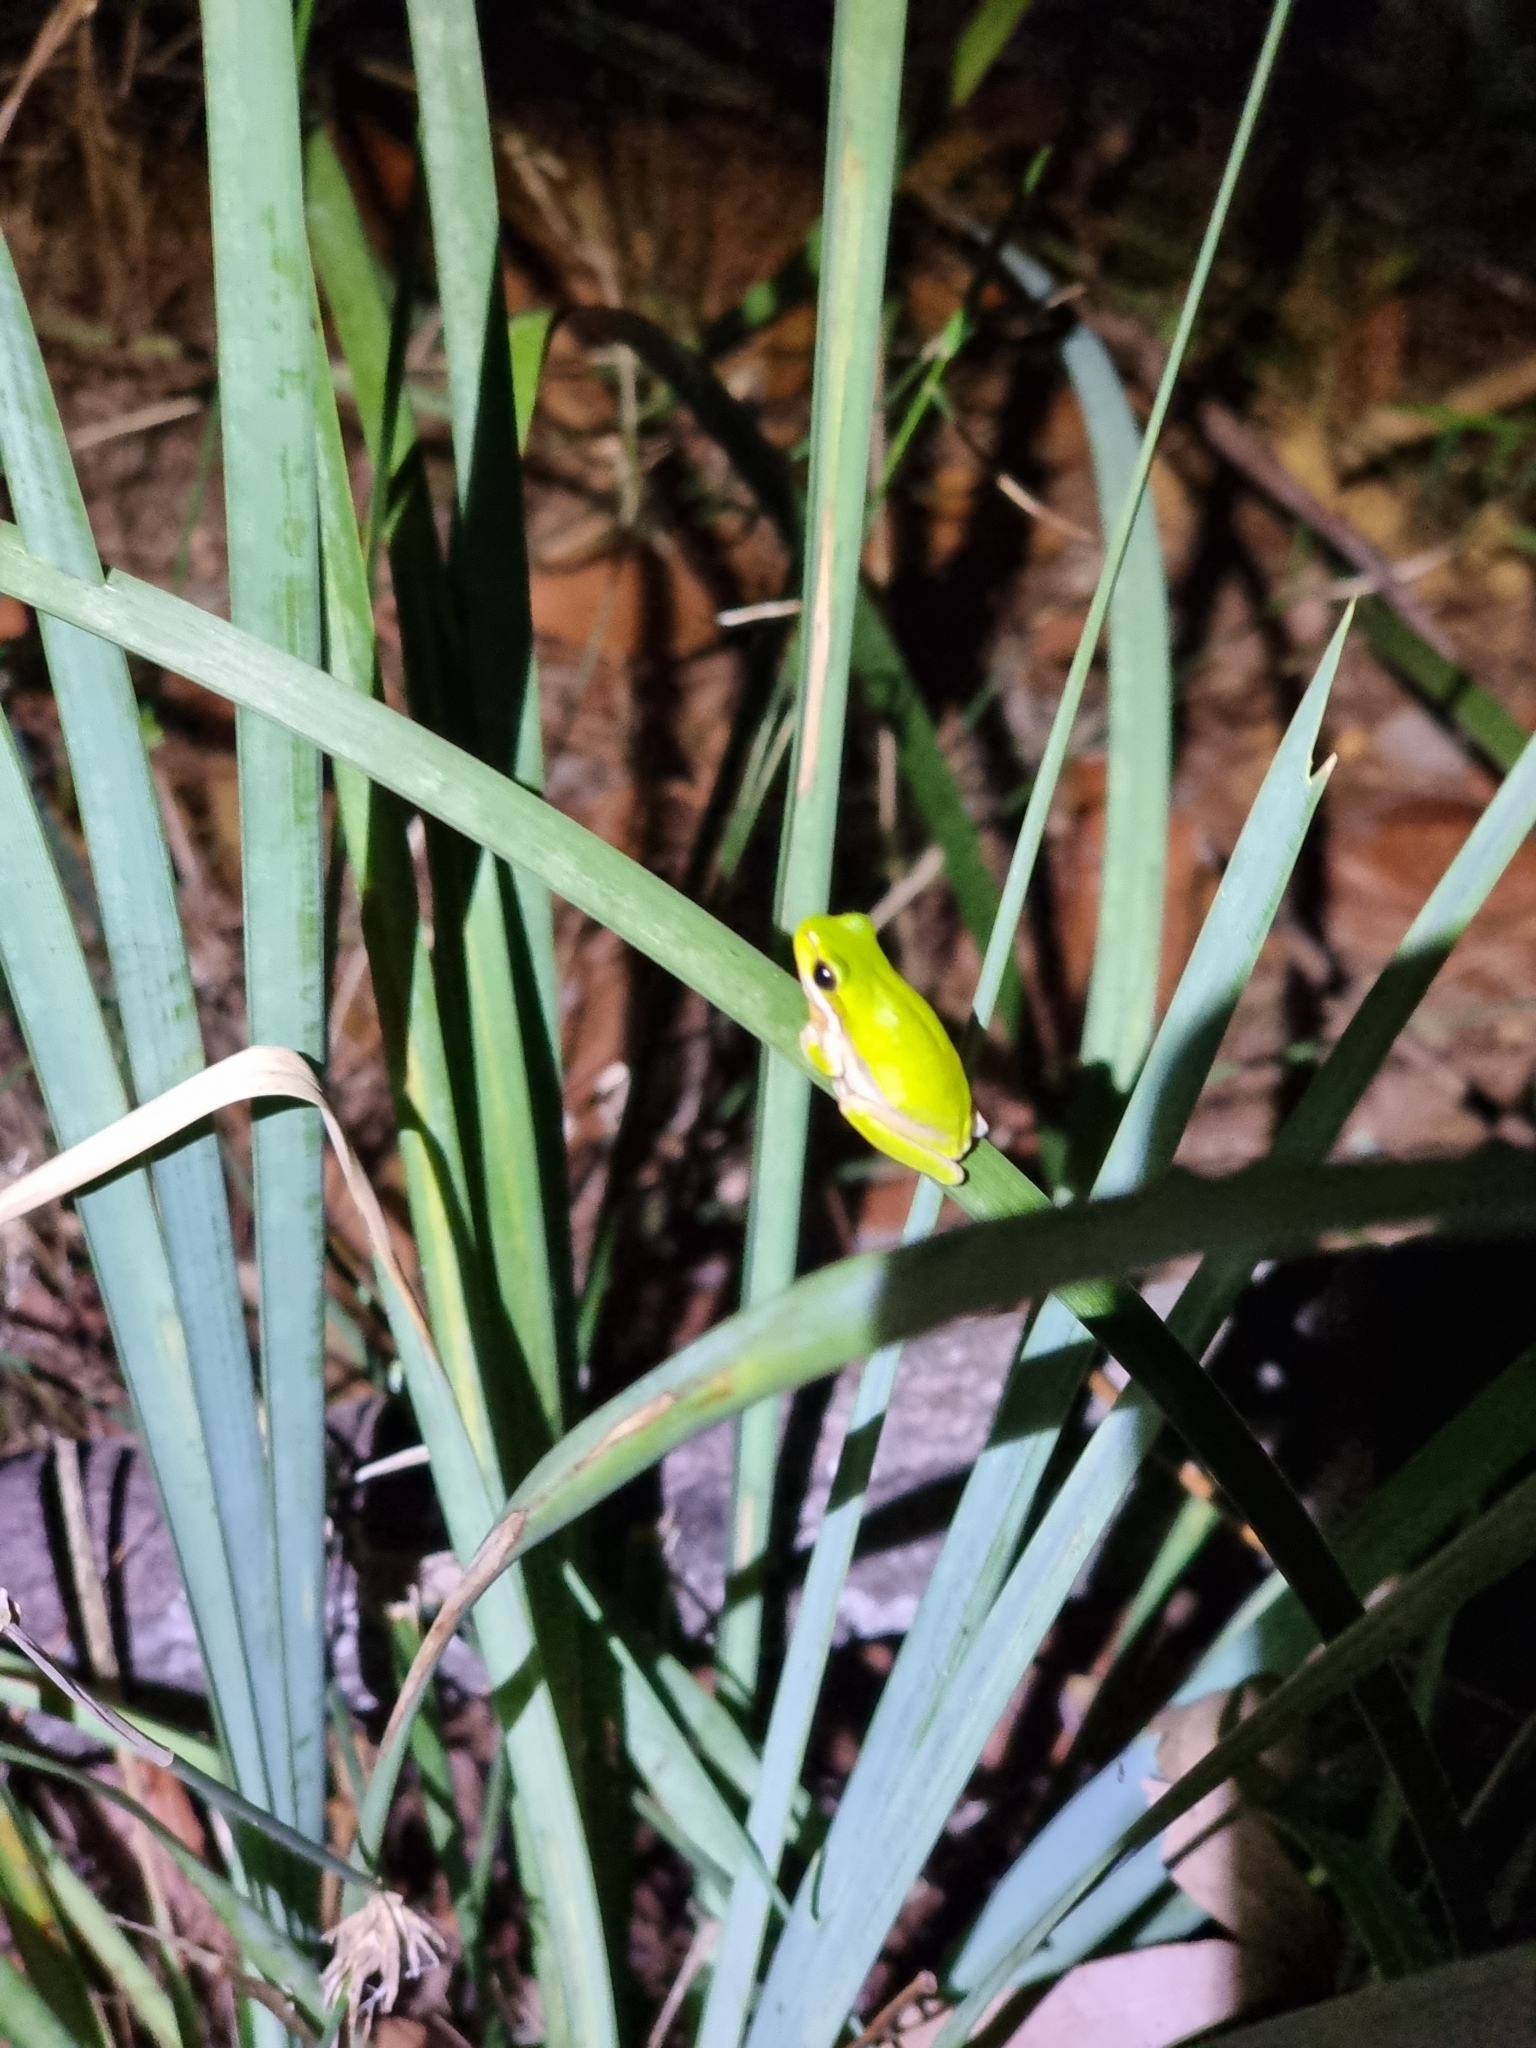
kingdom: Animalia
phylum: Chordata
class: Amphibia
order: Anura
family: Pelodryadidae
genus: Litoria
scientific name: Litoria fallax
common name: Eastern dwarf treefrog
